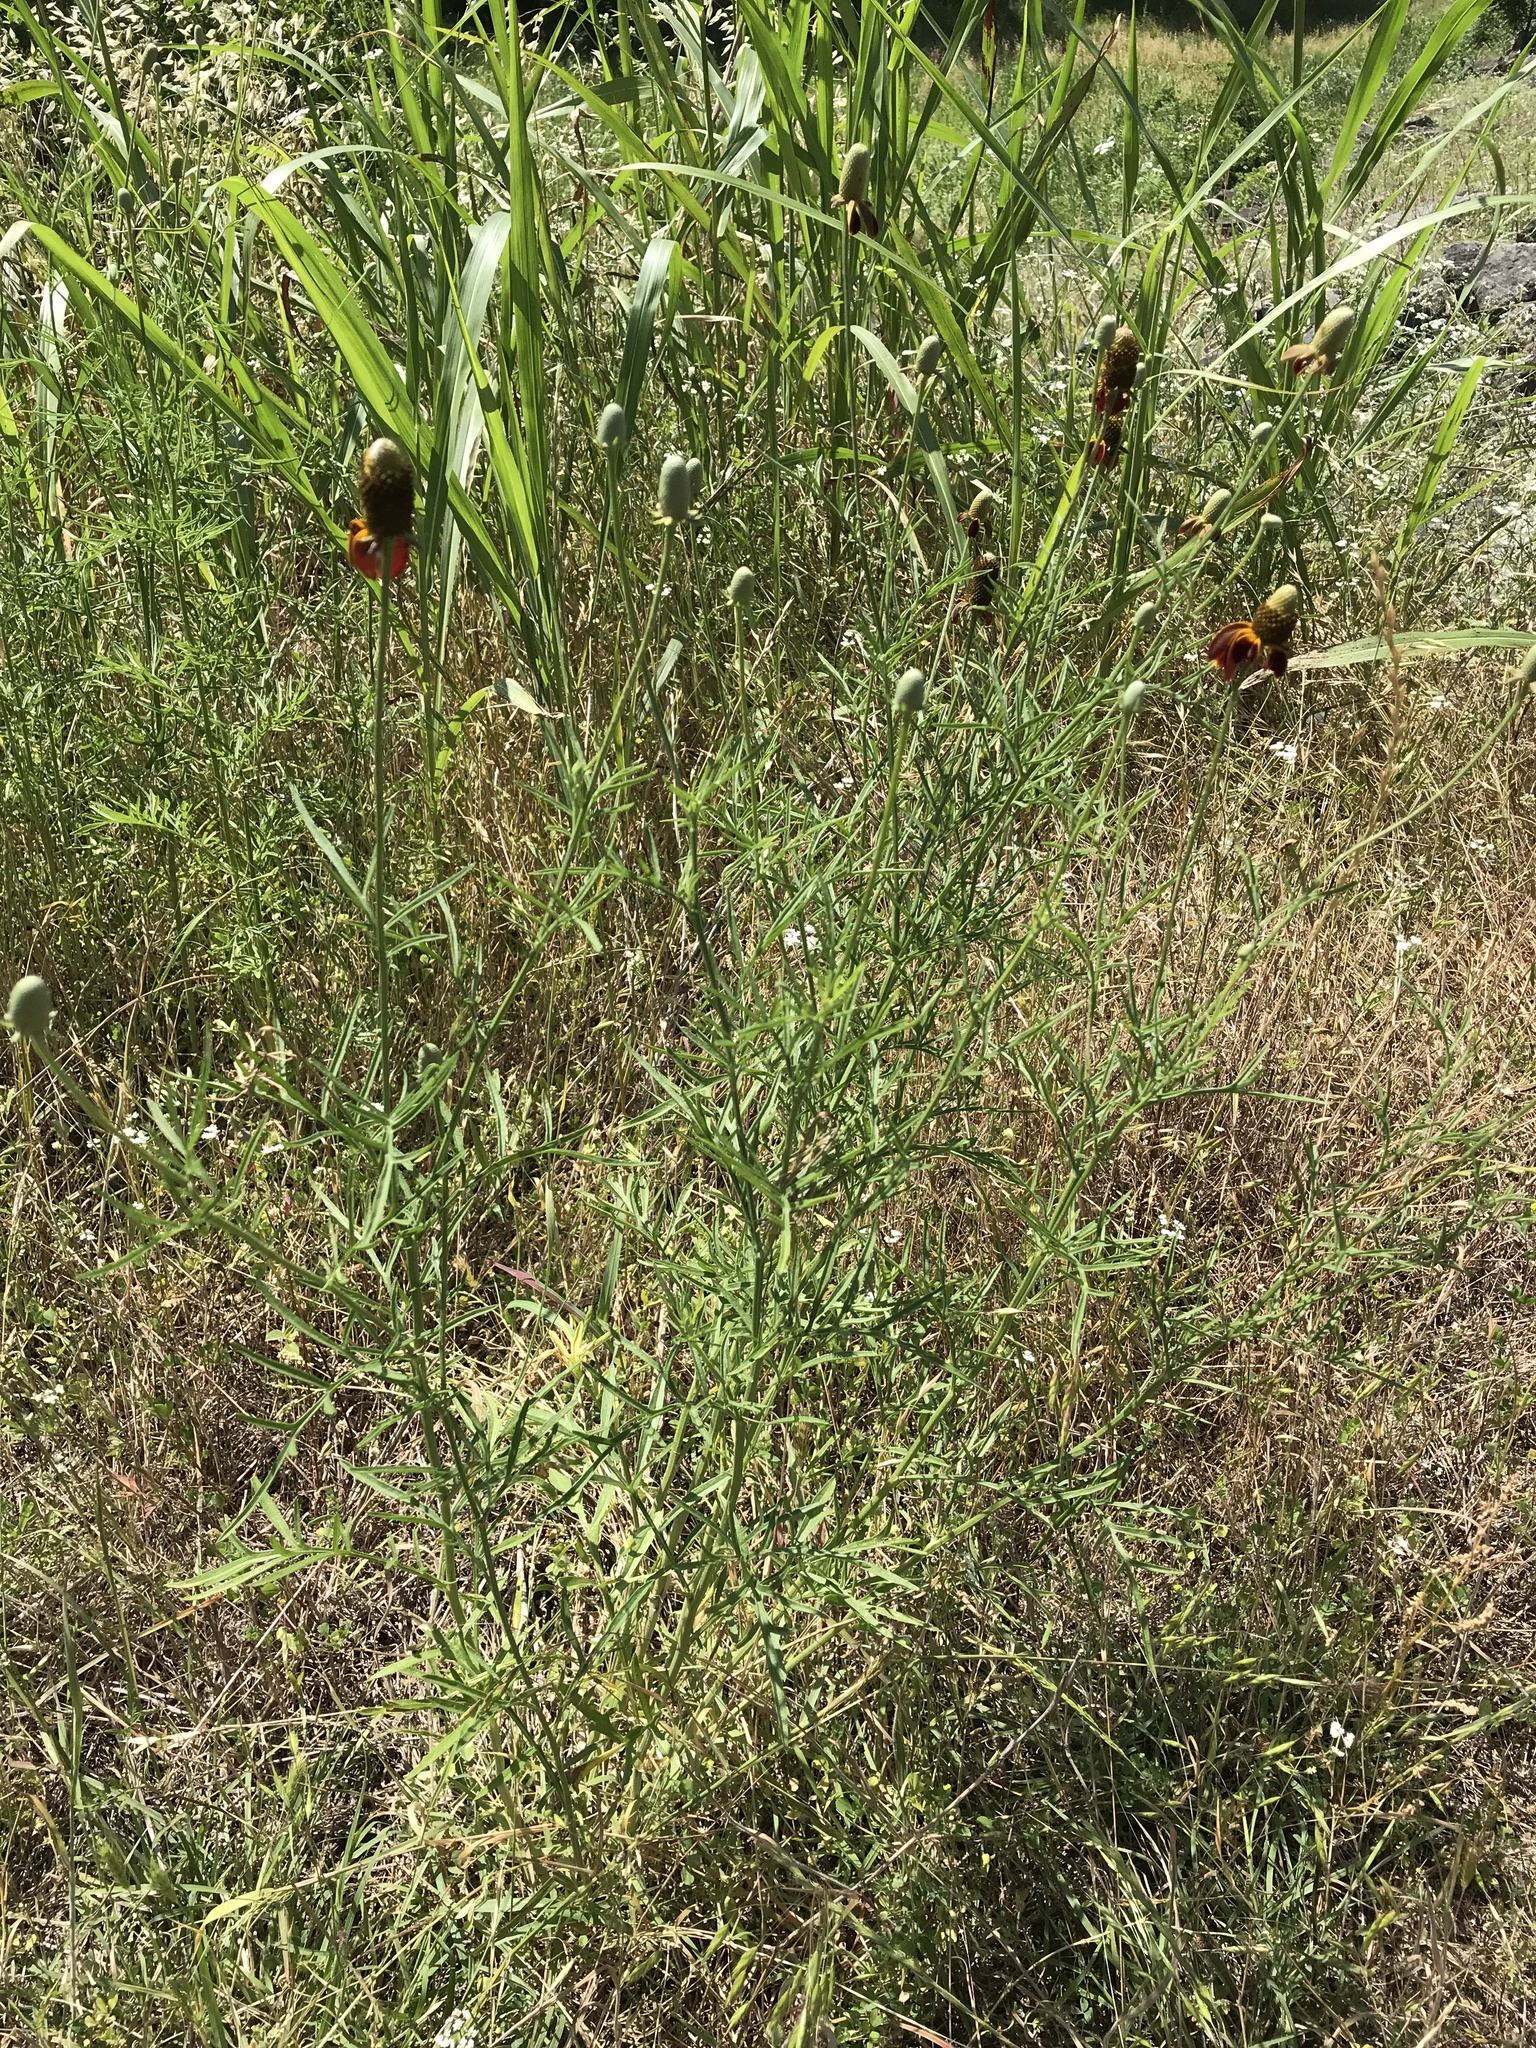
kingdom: Plantae
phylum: Tracheophyta
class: Magnoliopsida
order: Asterales
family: Asteraceae
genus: Ratibida
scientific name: Ratibida columnifera
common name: Prairie coneflower
